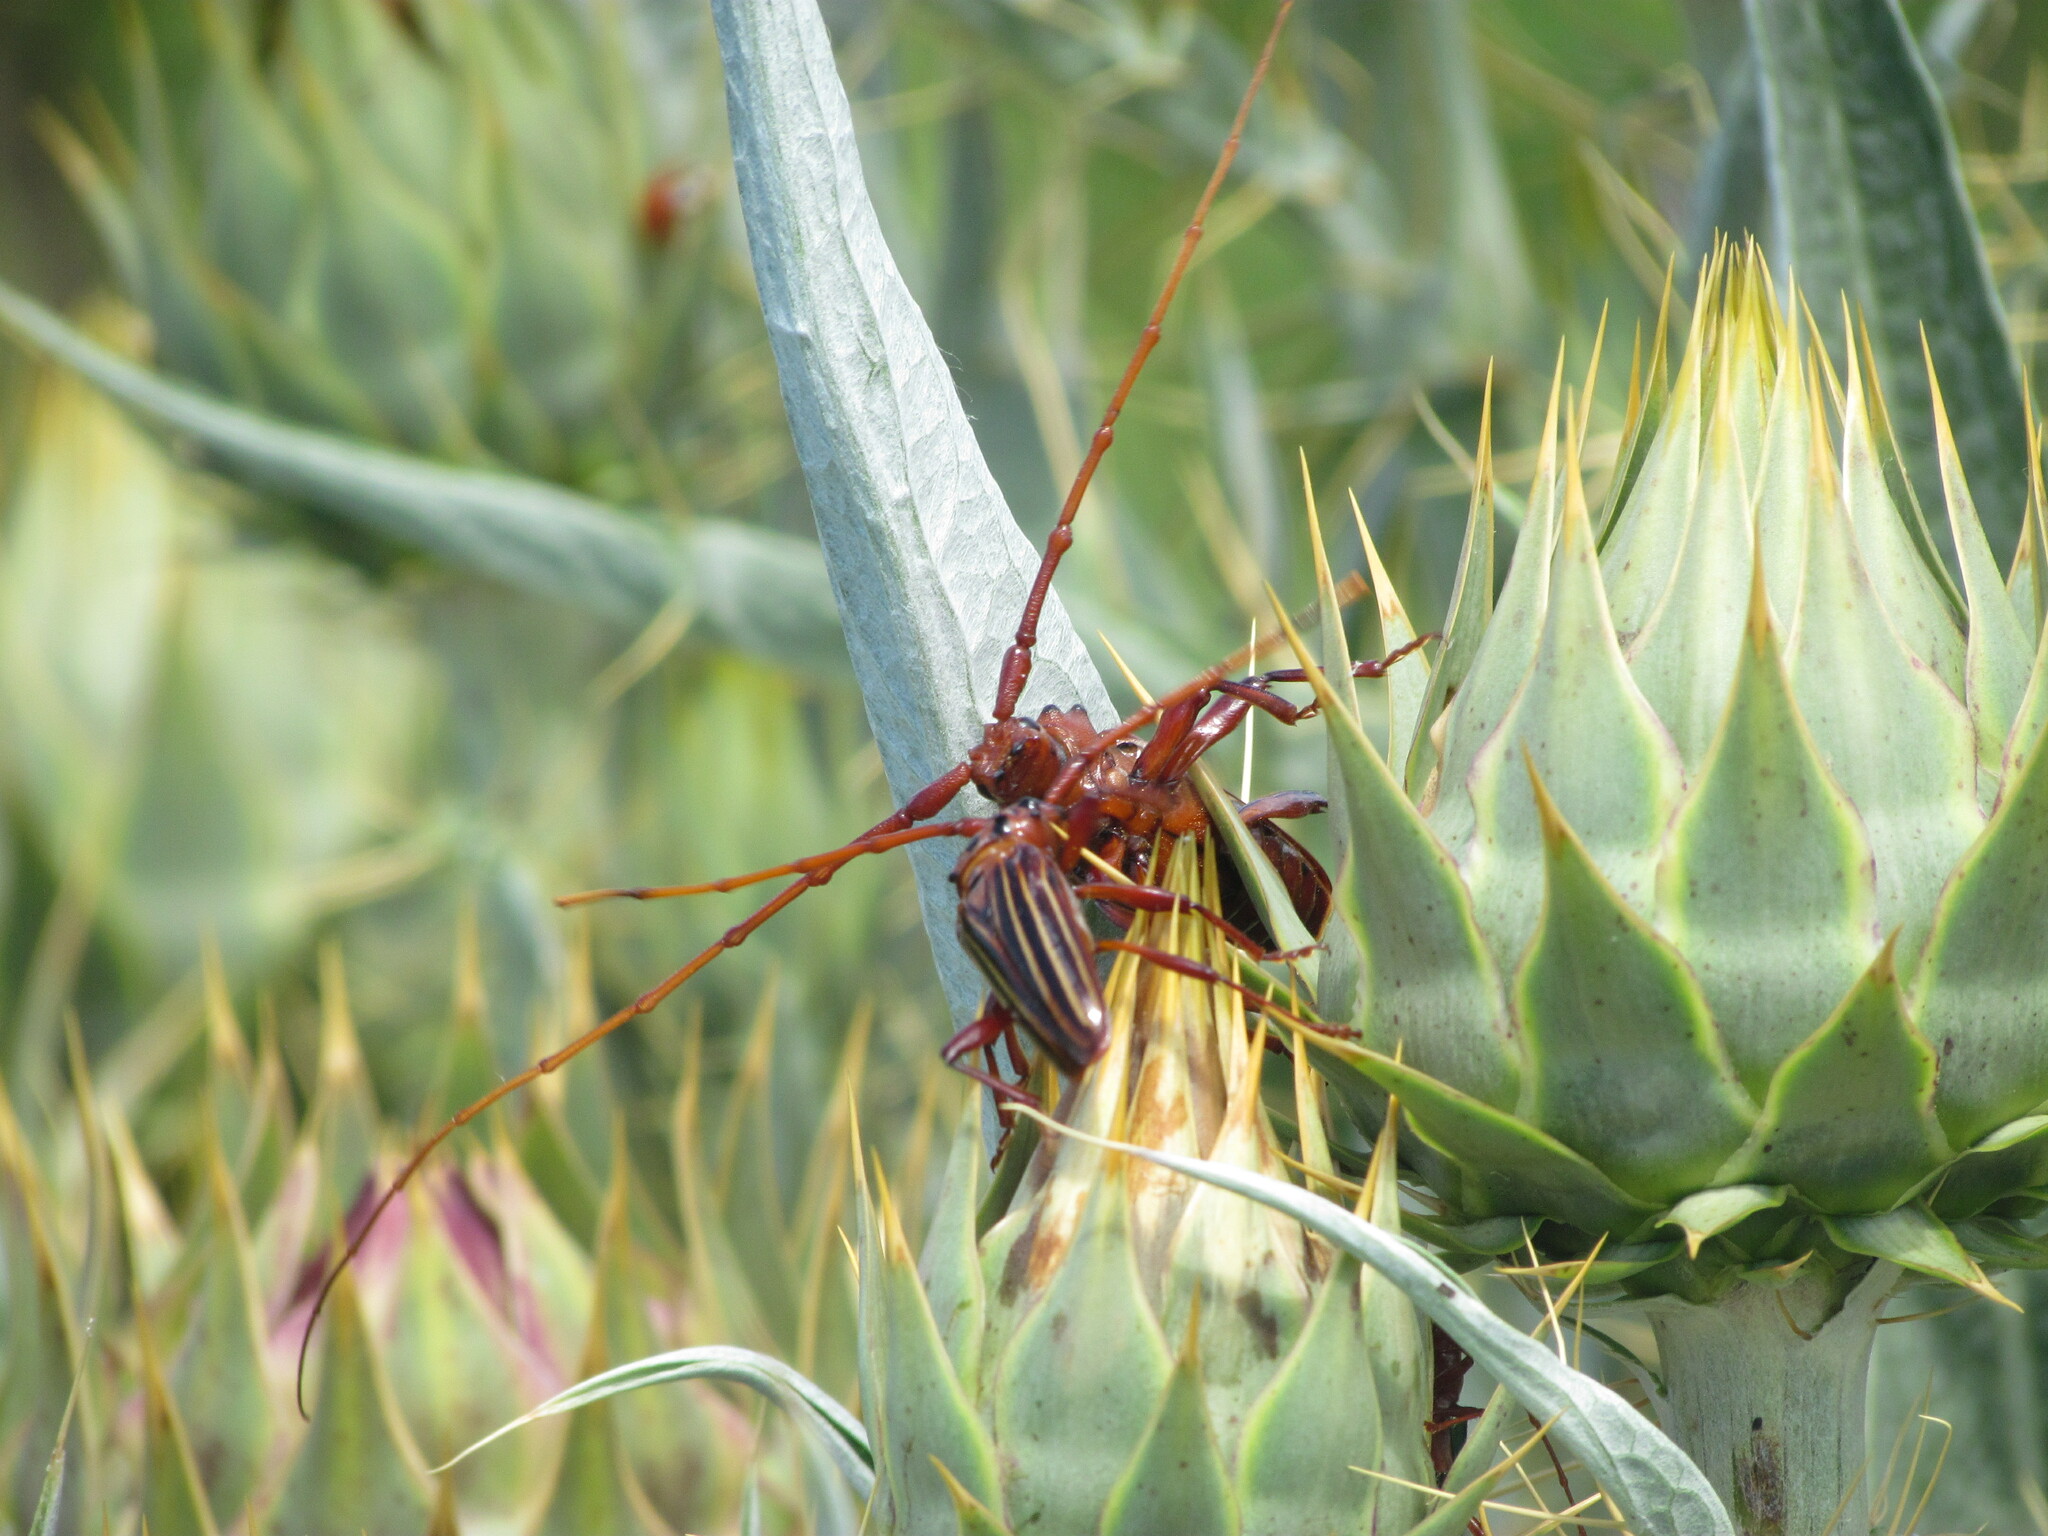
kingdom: Animalia
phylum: Arthropoda
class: Insecta
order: Coleoptera
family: Cerambycidae
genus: Chydarteres
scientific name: Chydarteres striatus
